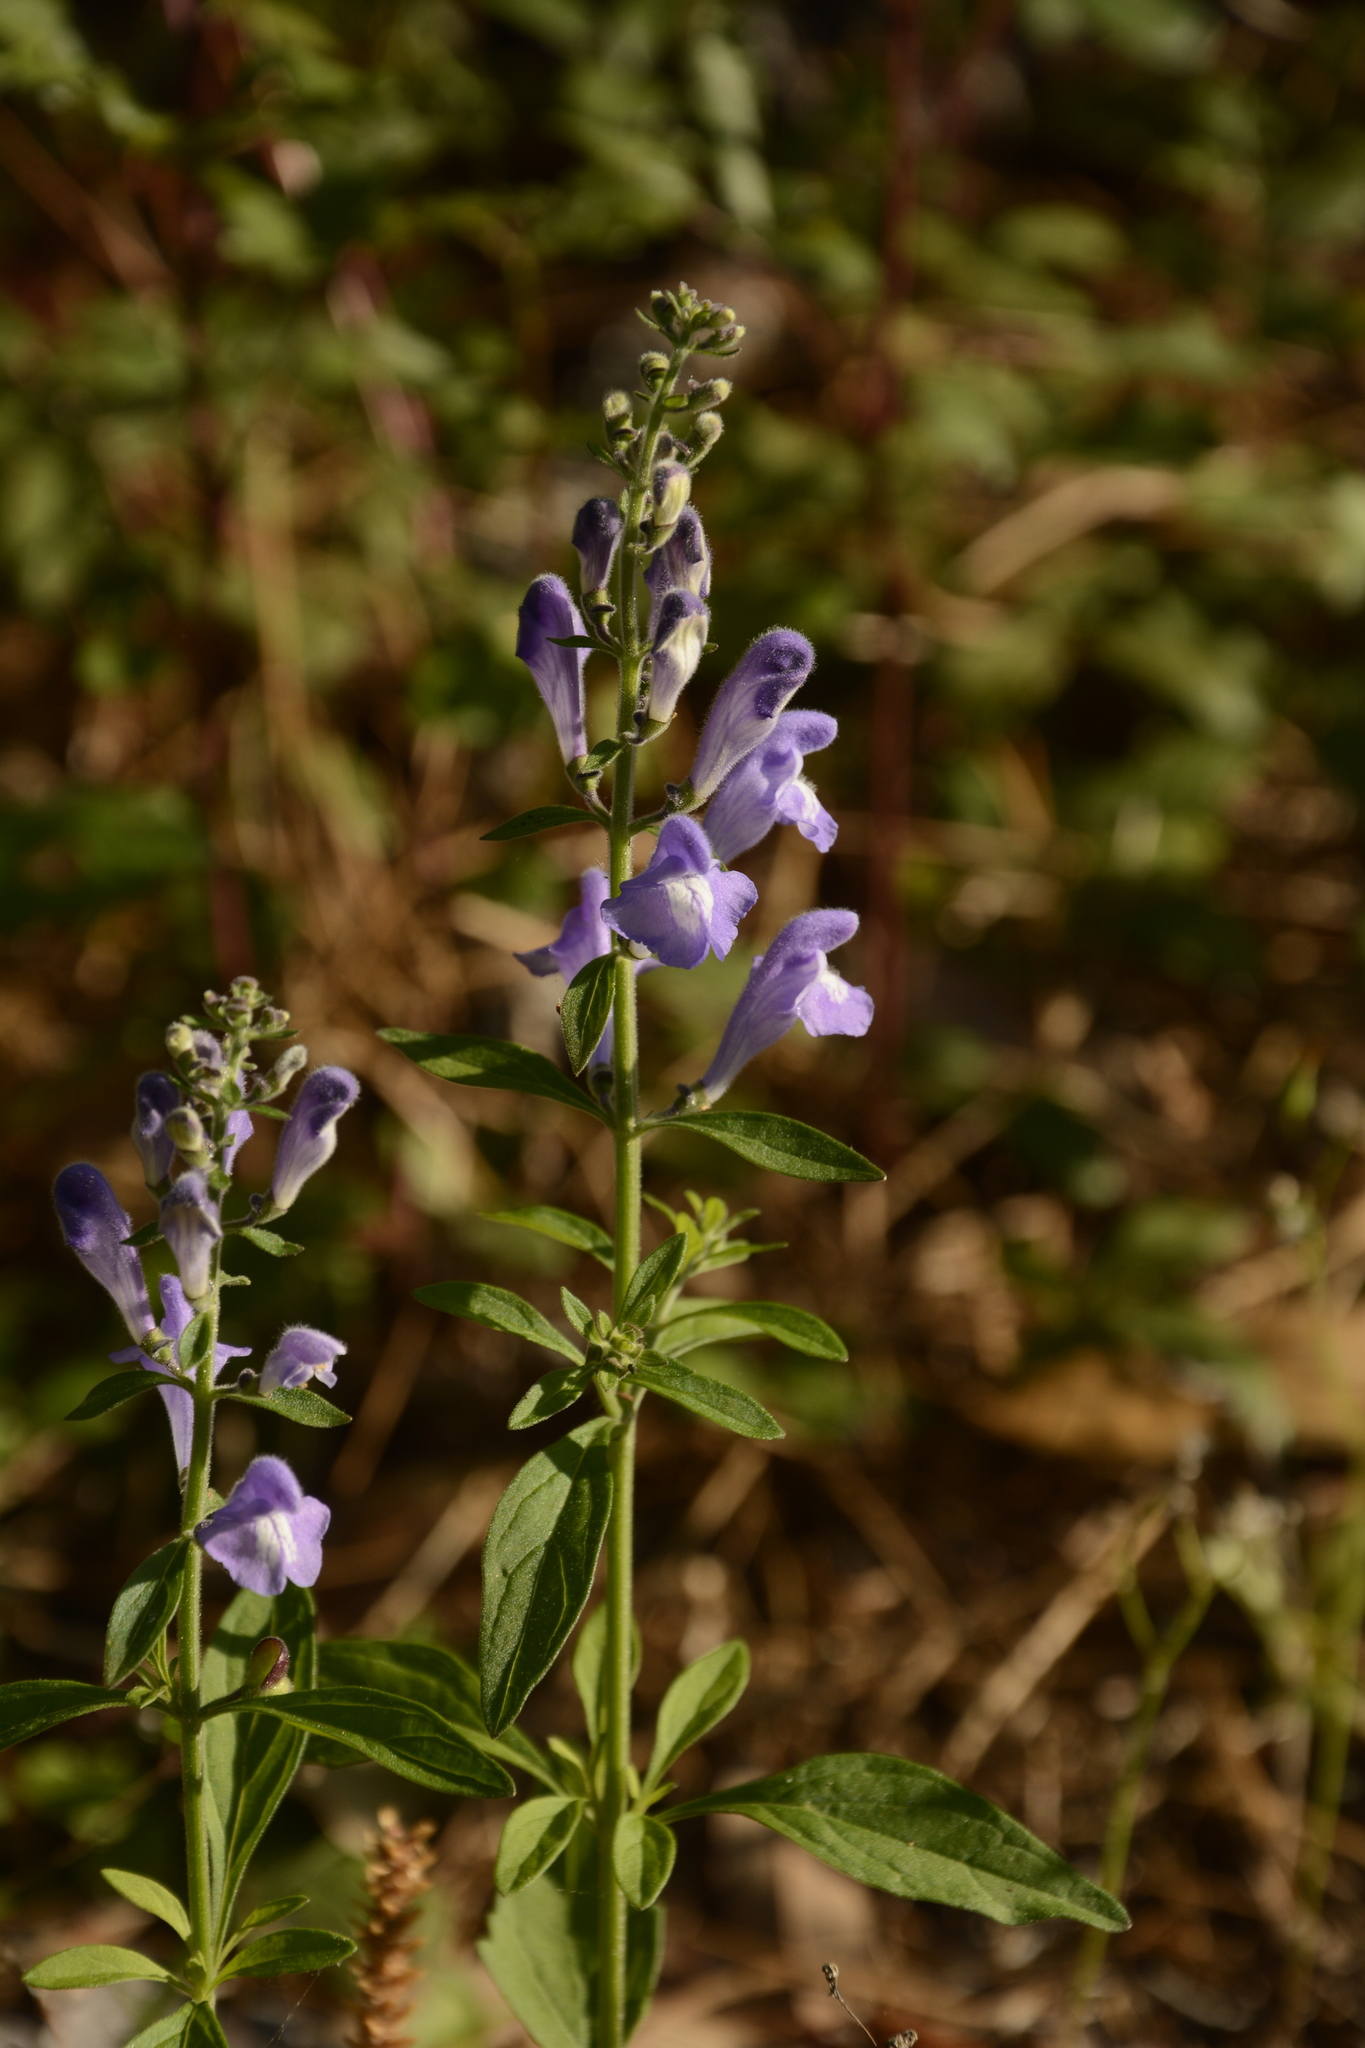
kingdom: Plantae
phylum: Tracheophyta
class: Magnoliopsida
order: Lamiales
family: Lamiaceae
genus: Scutellaria
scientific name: Scutellaria integrifolia
